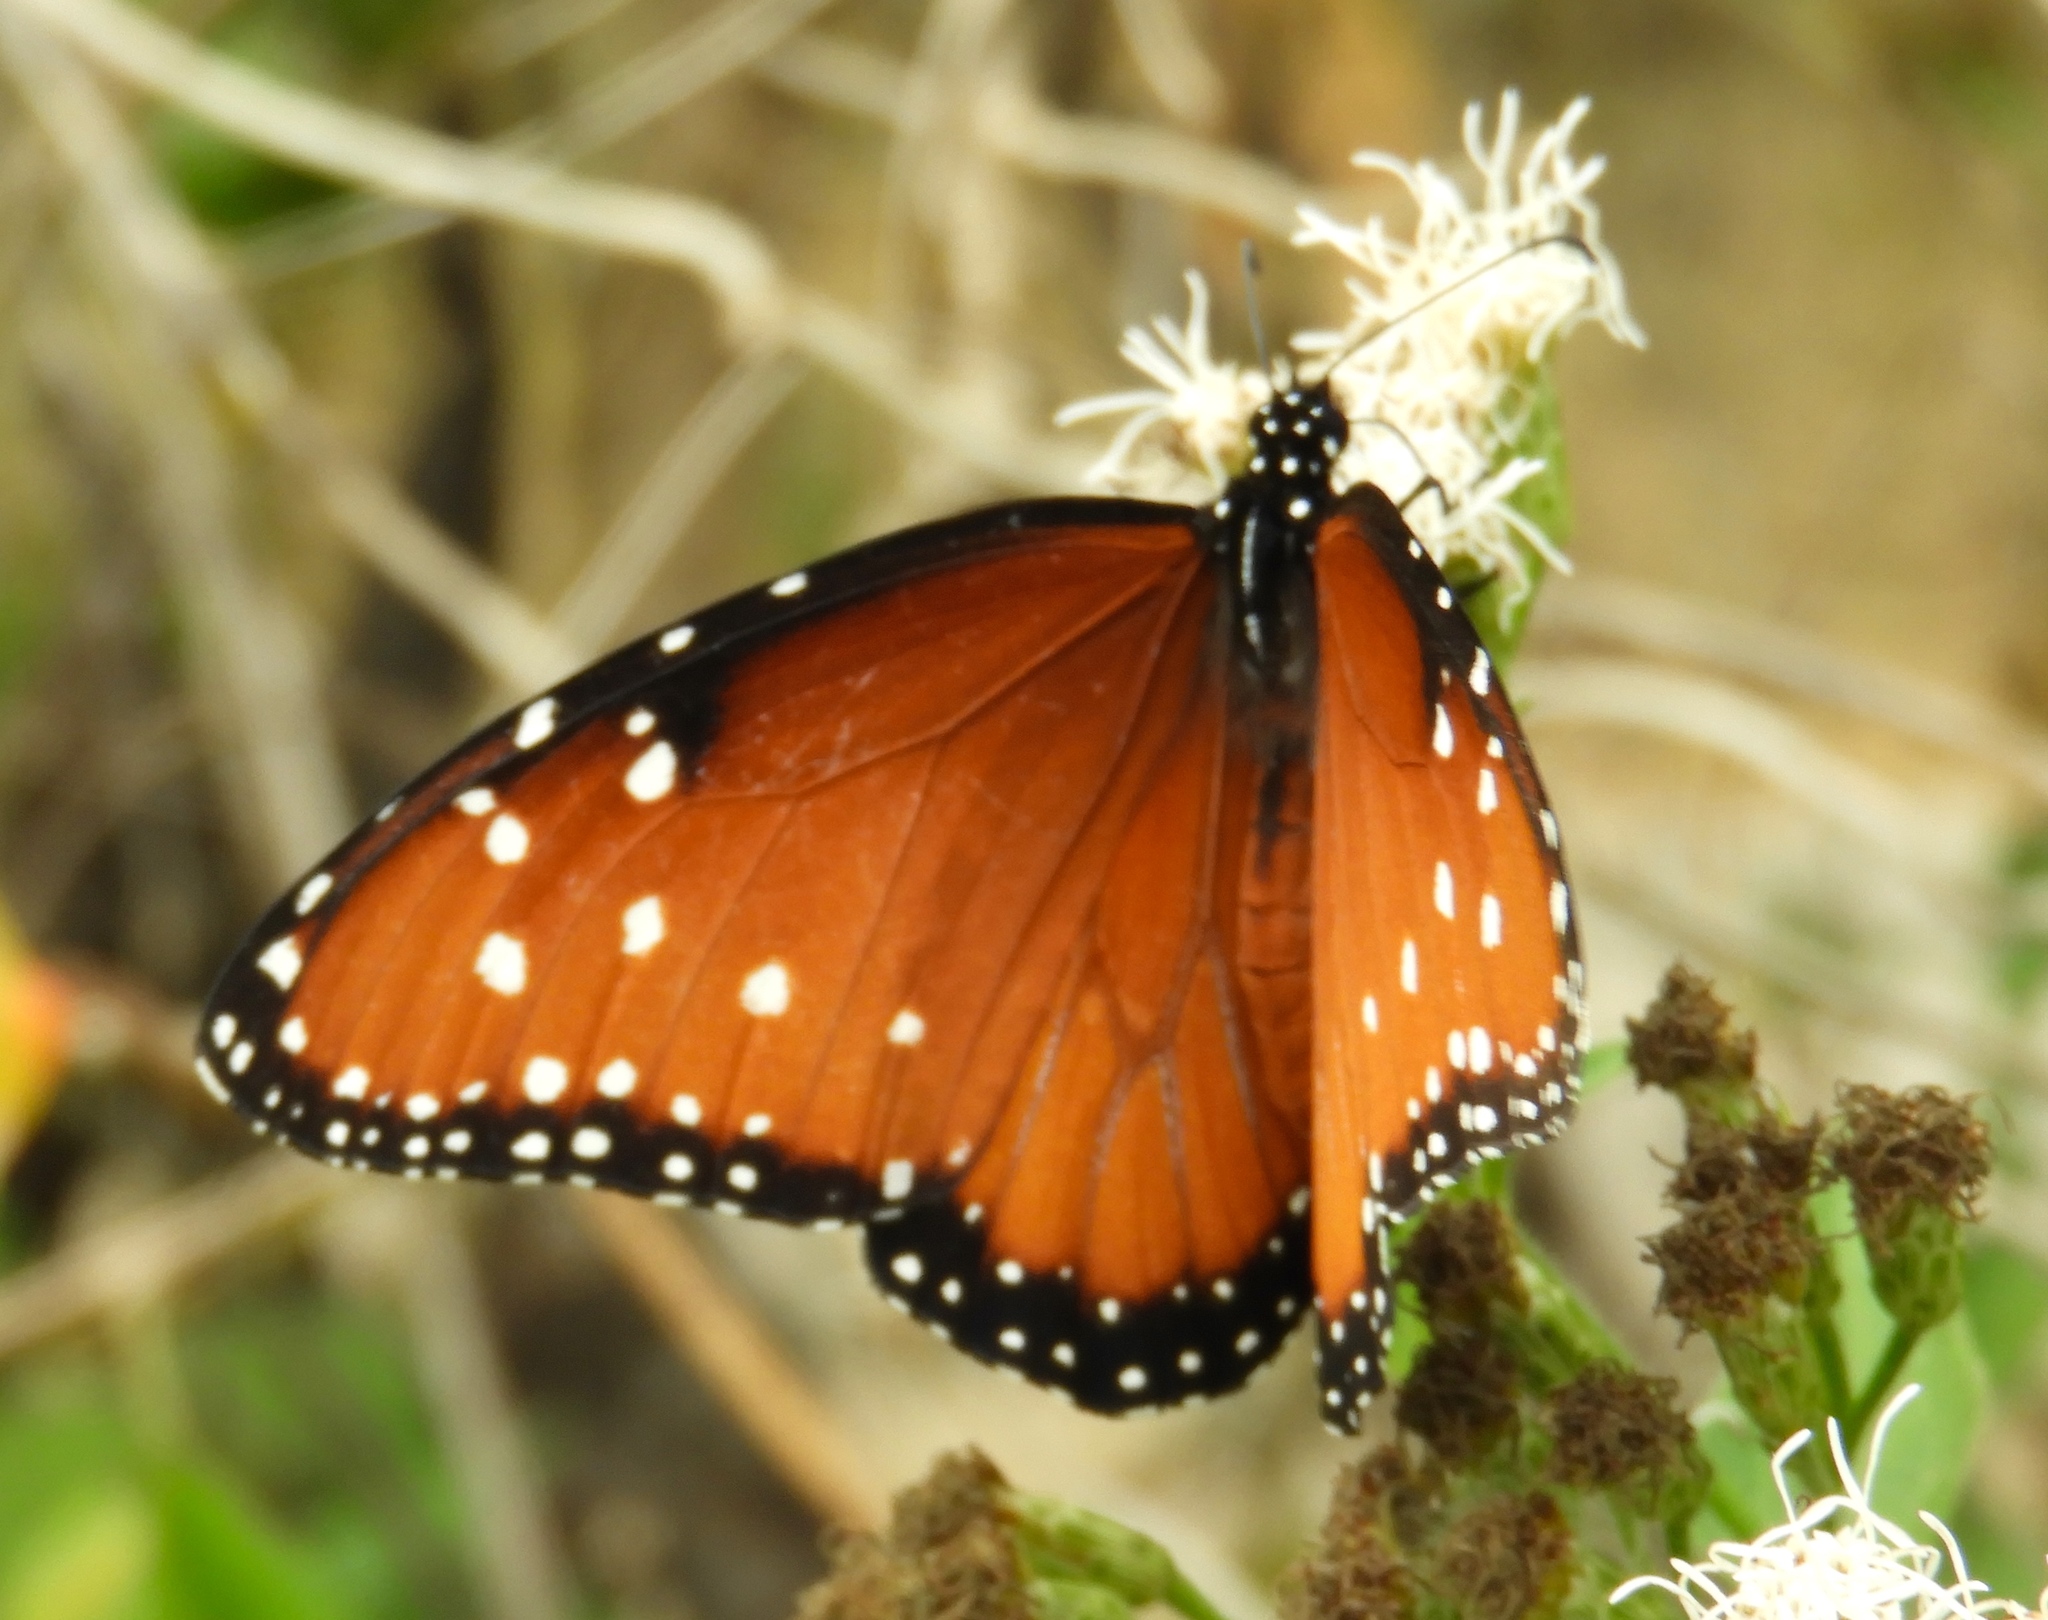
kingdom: Animalia
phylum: Arthropoda
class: Insecta
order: Lepidoptera
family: Nymphalidae
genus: Danaus
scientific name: Danaus gilippus
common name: Queen
